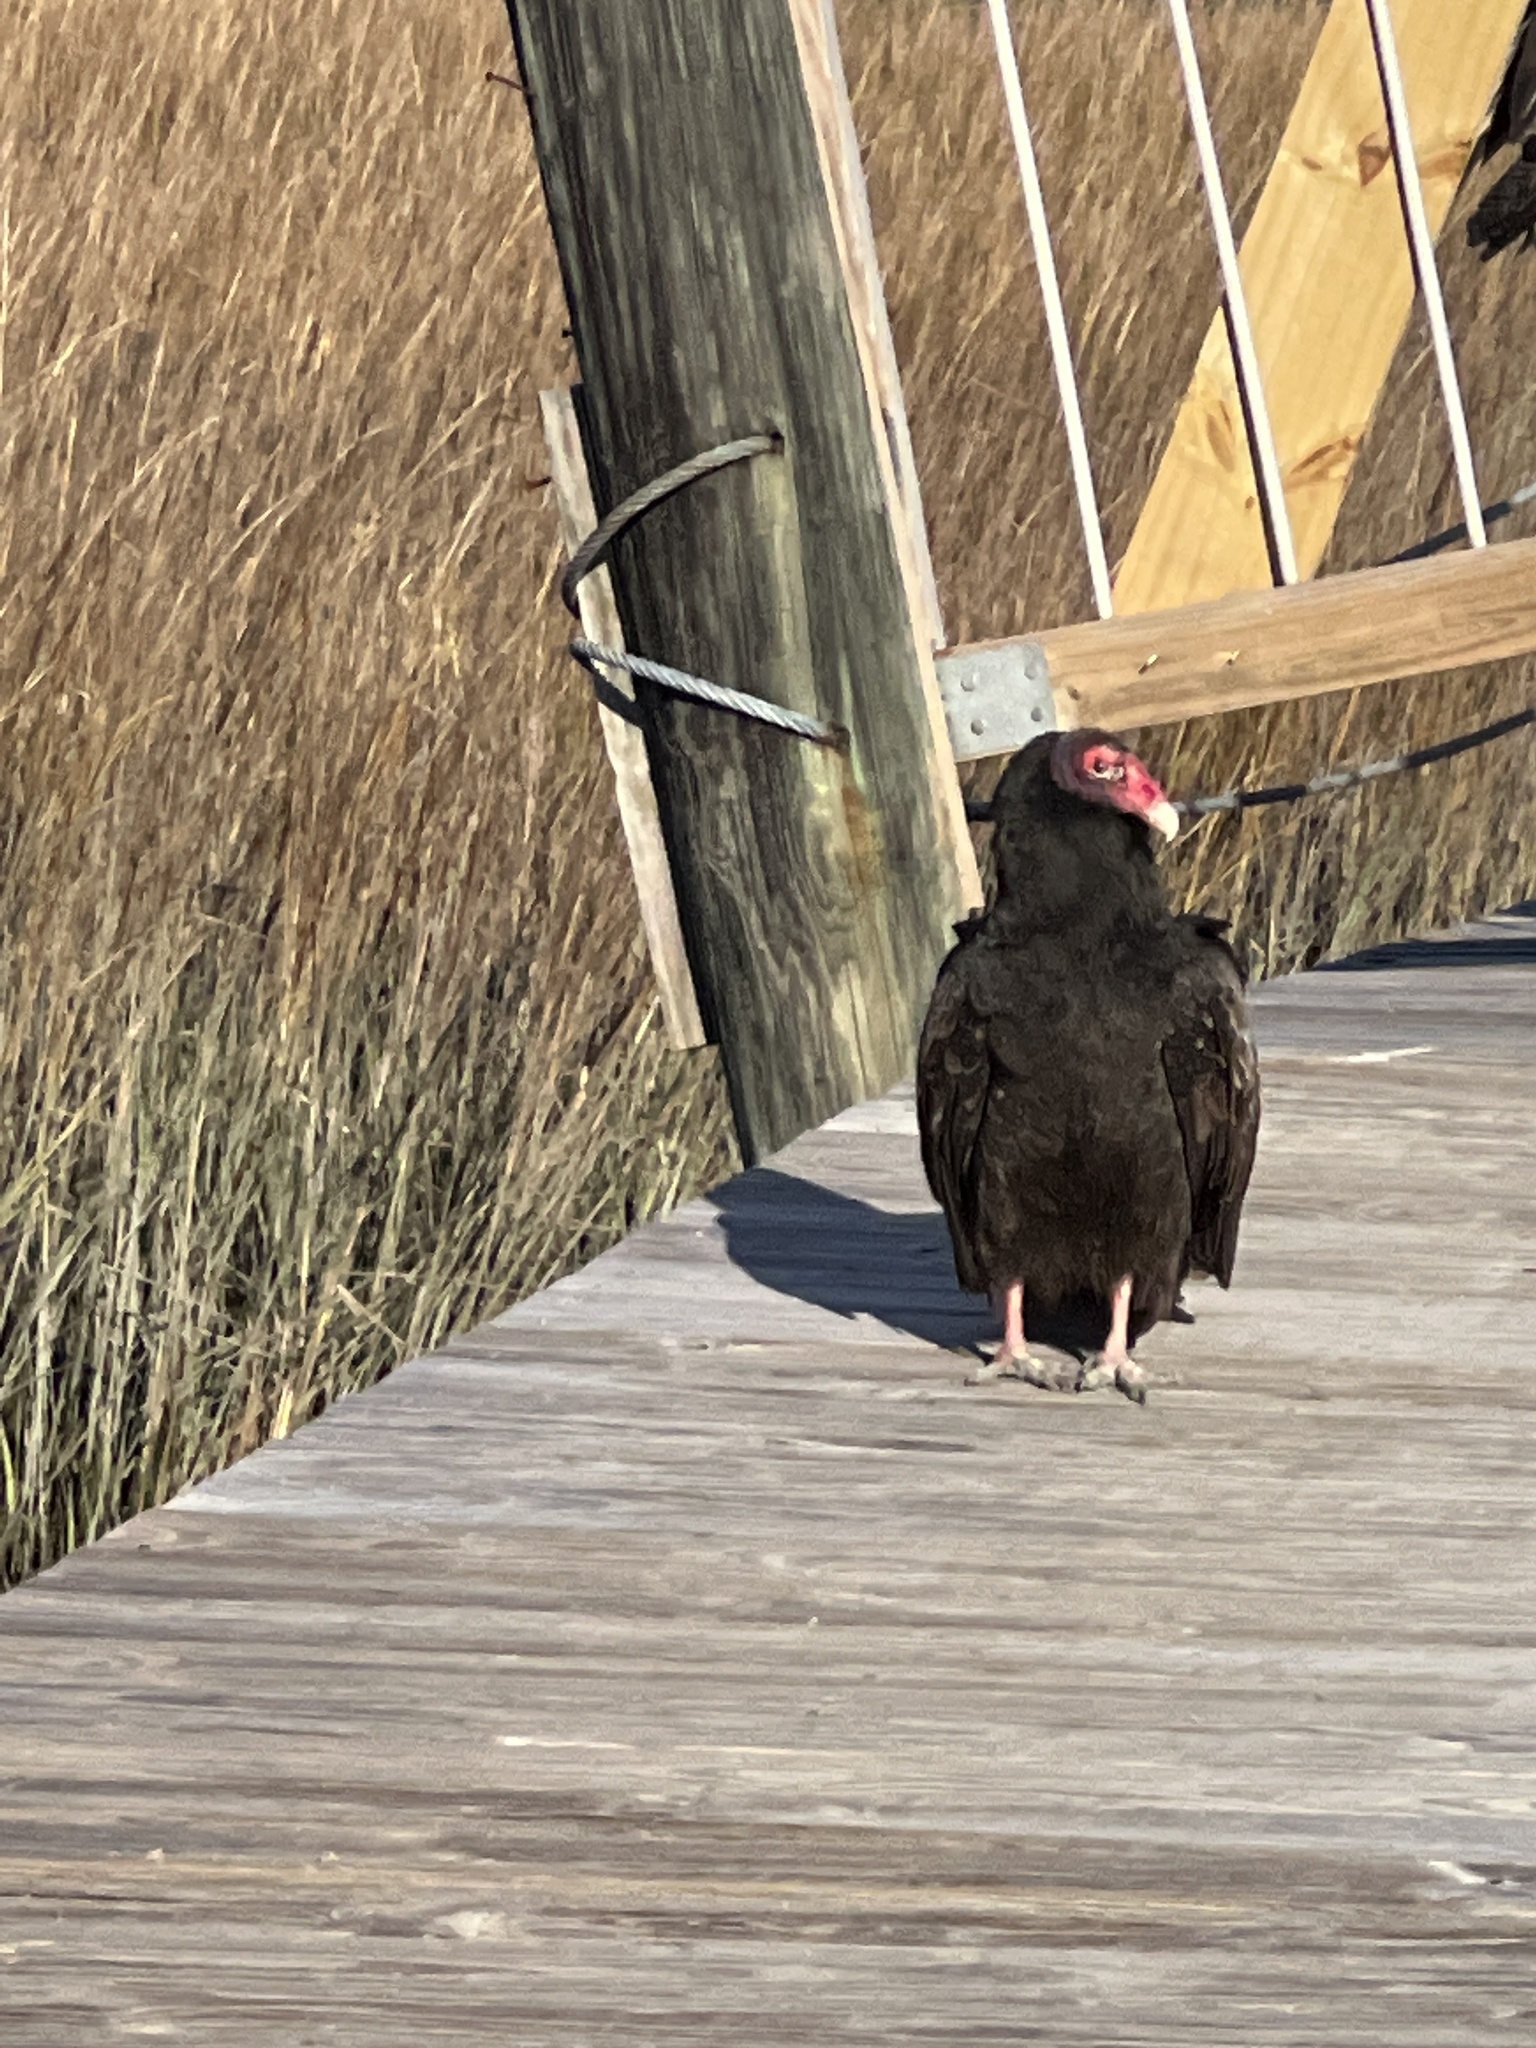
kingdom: Animalia
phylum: Chordata
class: Aves
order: Accipitriformes
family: Cathartidae
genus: Cathartes
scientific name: Cathartes aura
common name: Turkey vulture
